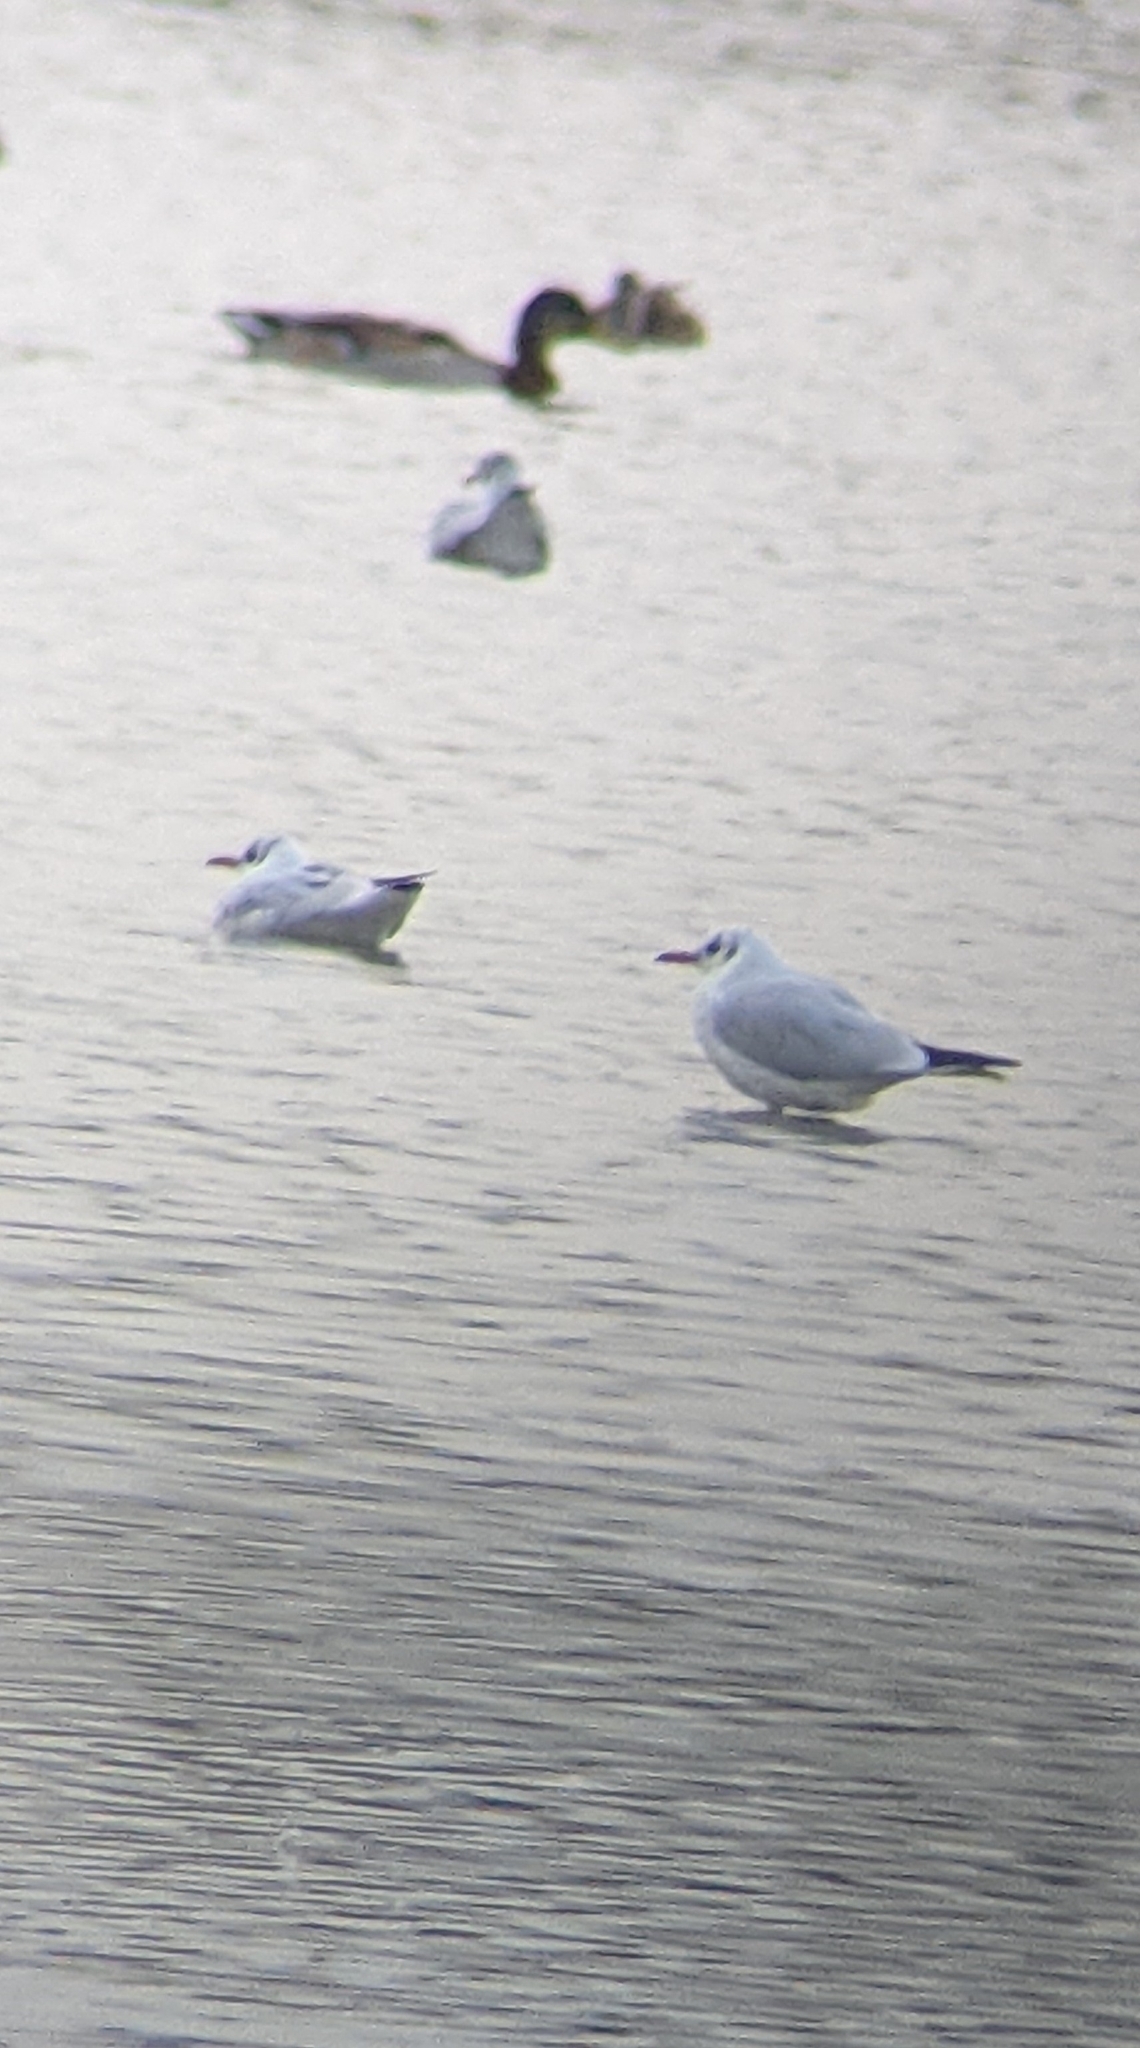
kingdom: Animalia
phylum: Chordata
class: Aves
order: Charadriiformes
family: Laridae
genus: Chroicocephalus
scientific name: Chroicocephalus ridibundus
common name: Black-headed gull
